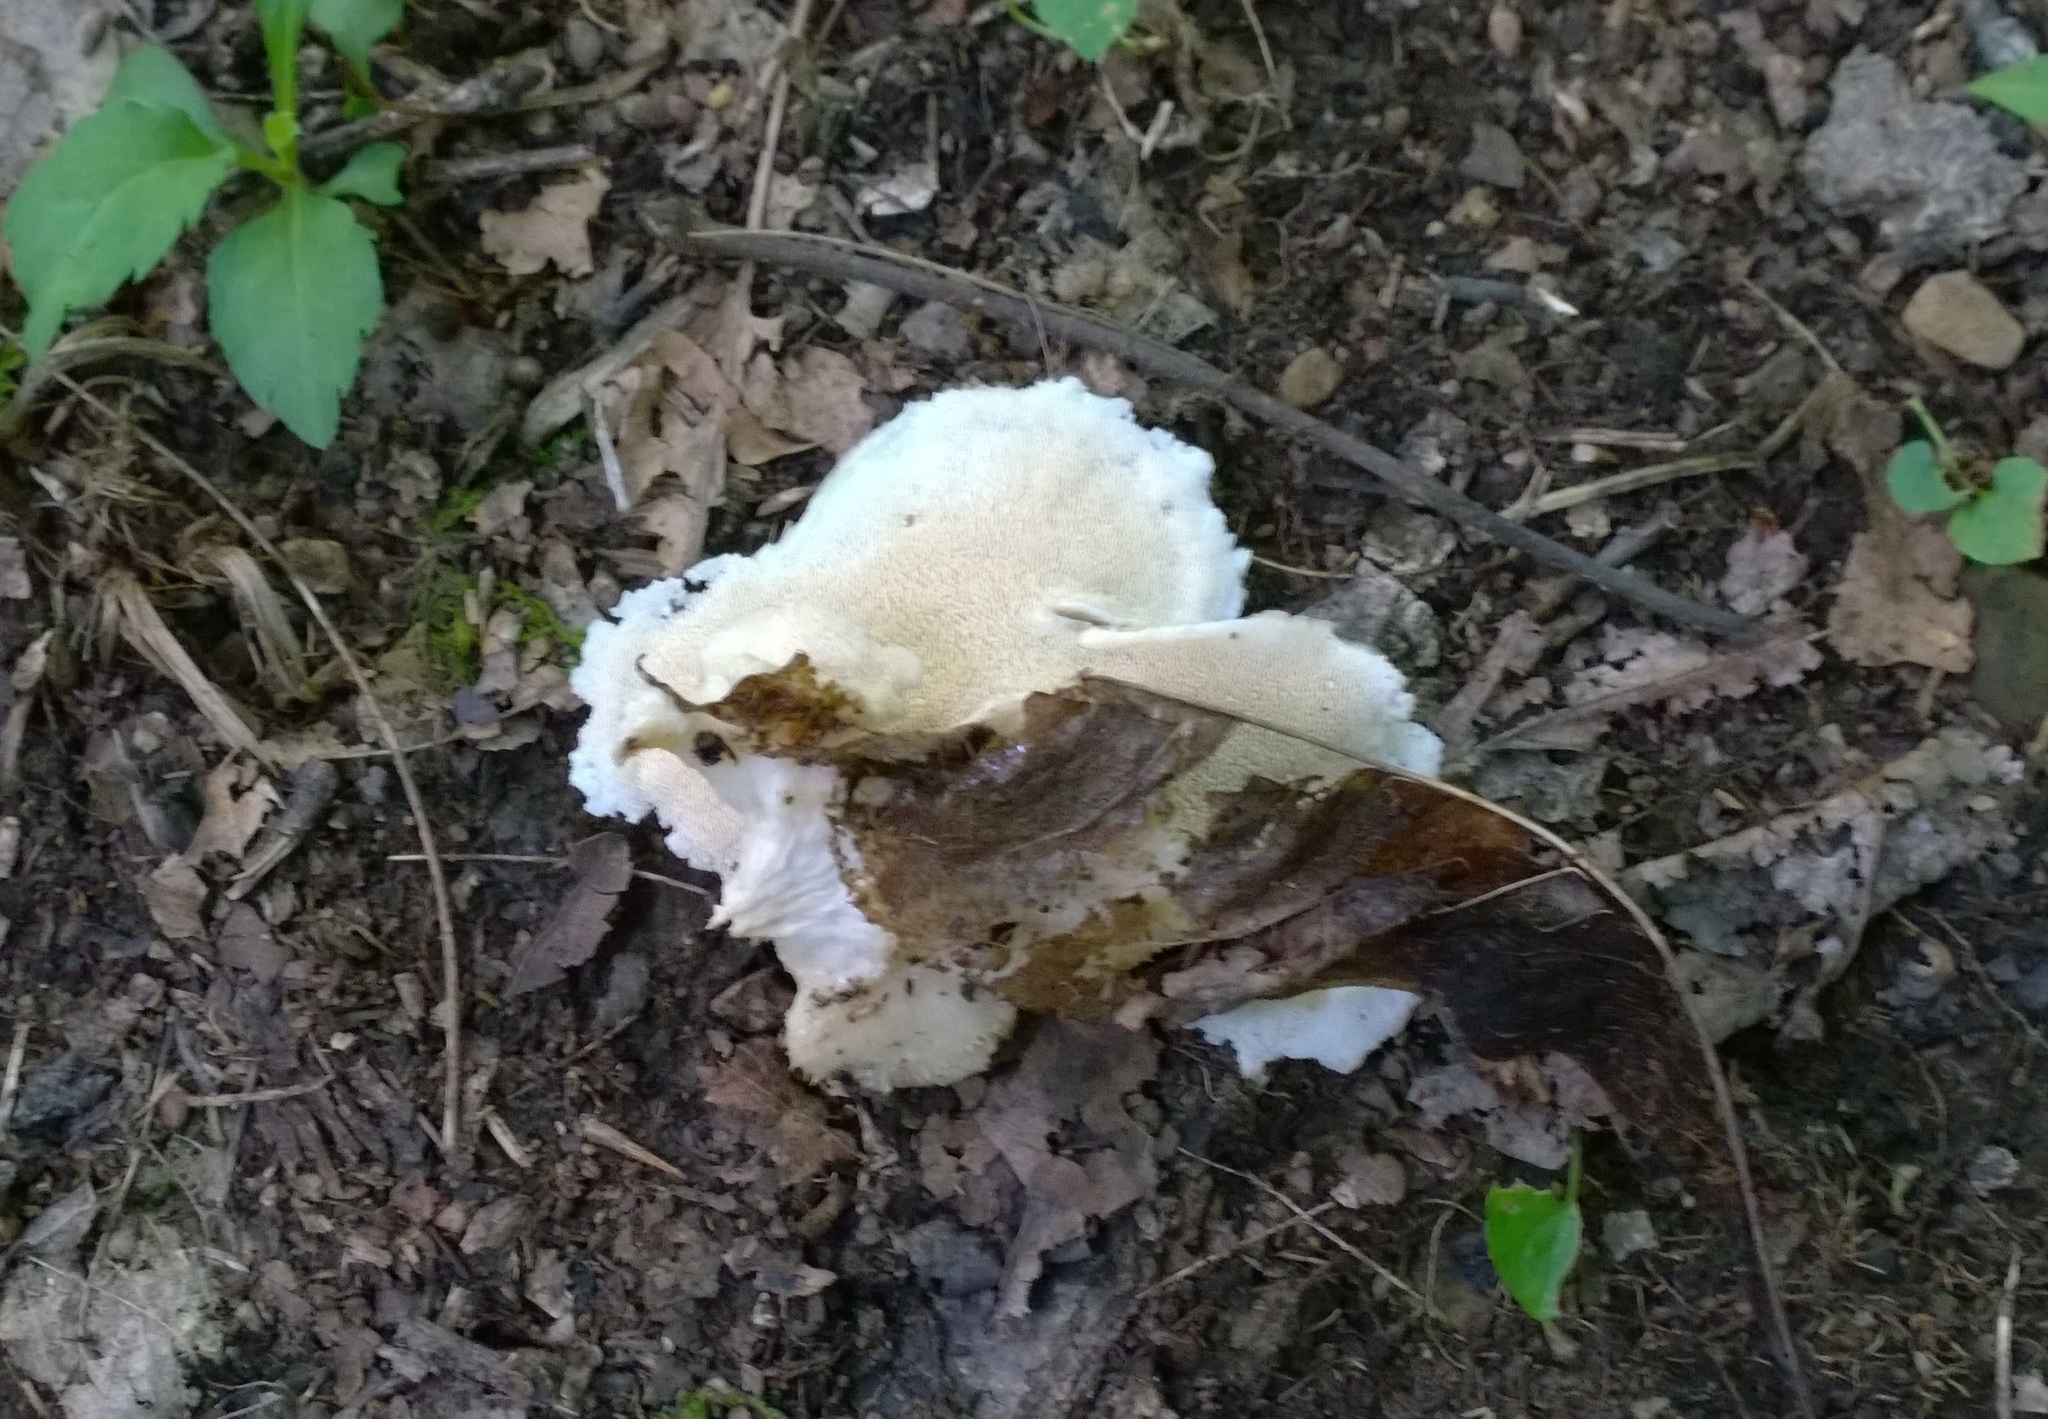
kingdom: Fungi
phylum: Basidiomycota
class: Agaricomycetes
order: Polyporales
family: Meruliaceae
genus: Donkia
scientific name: Donkia pulcherrima
